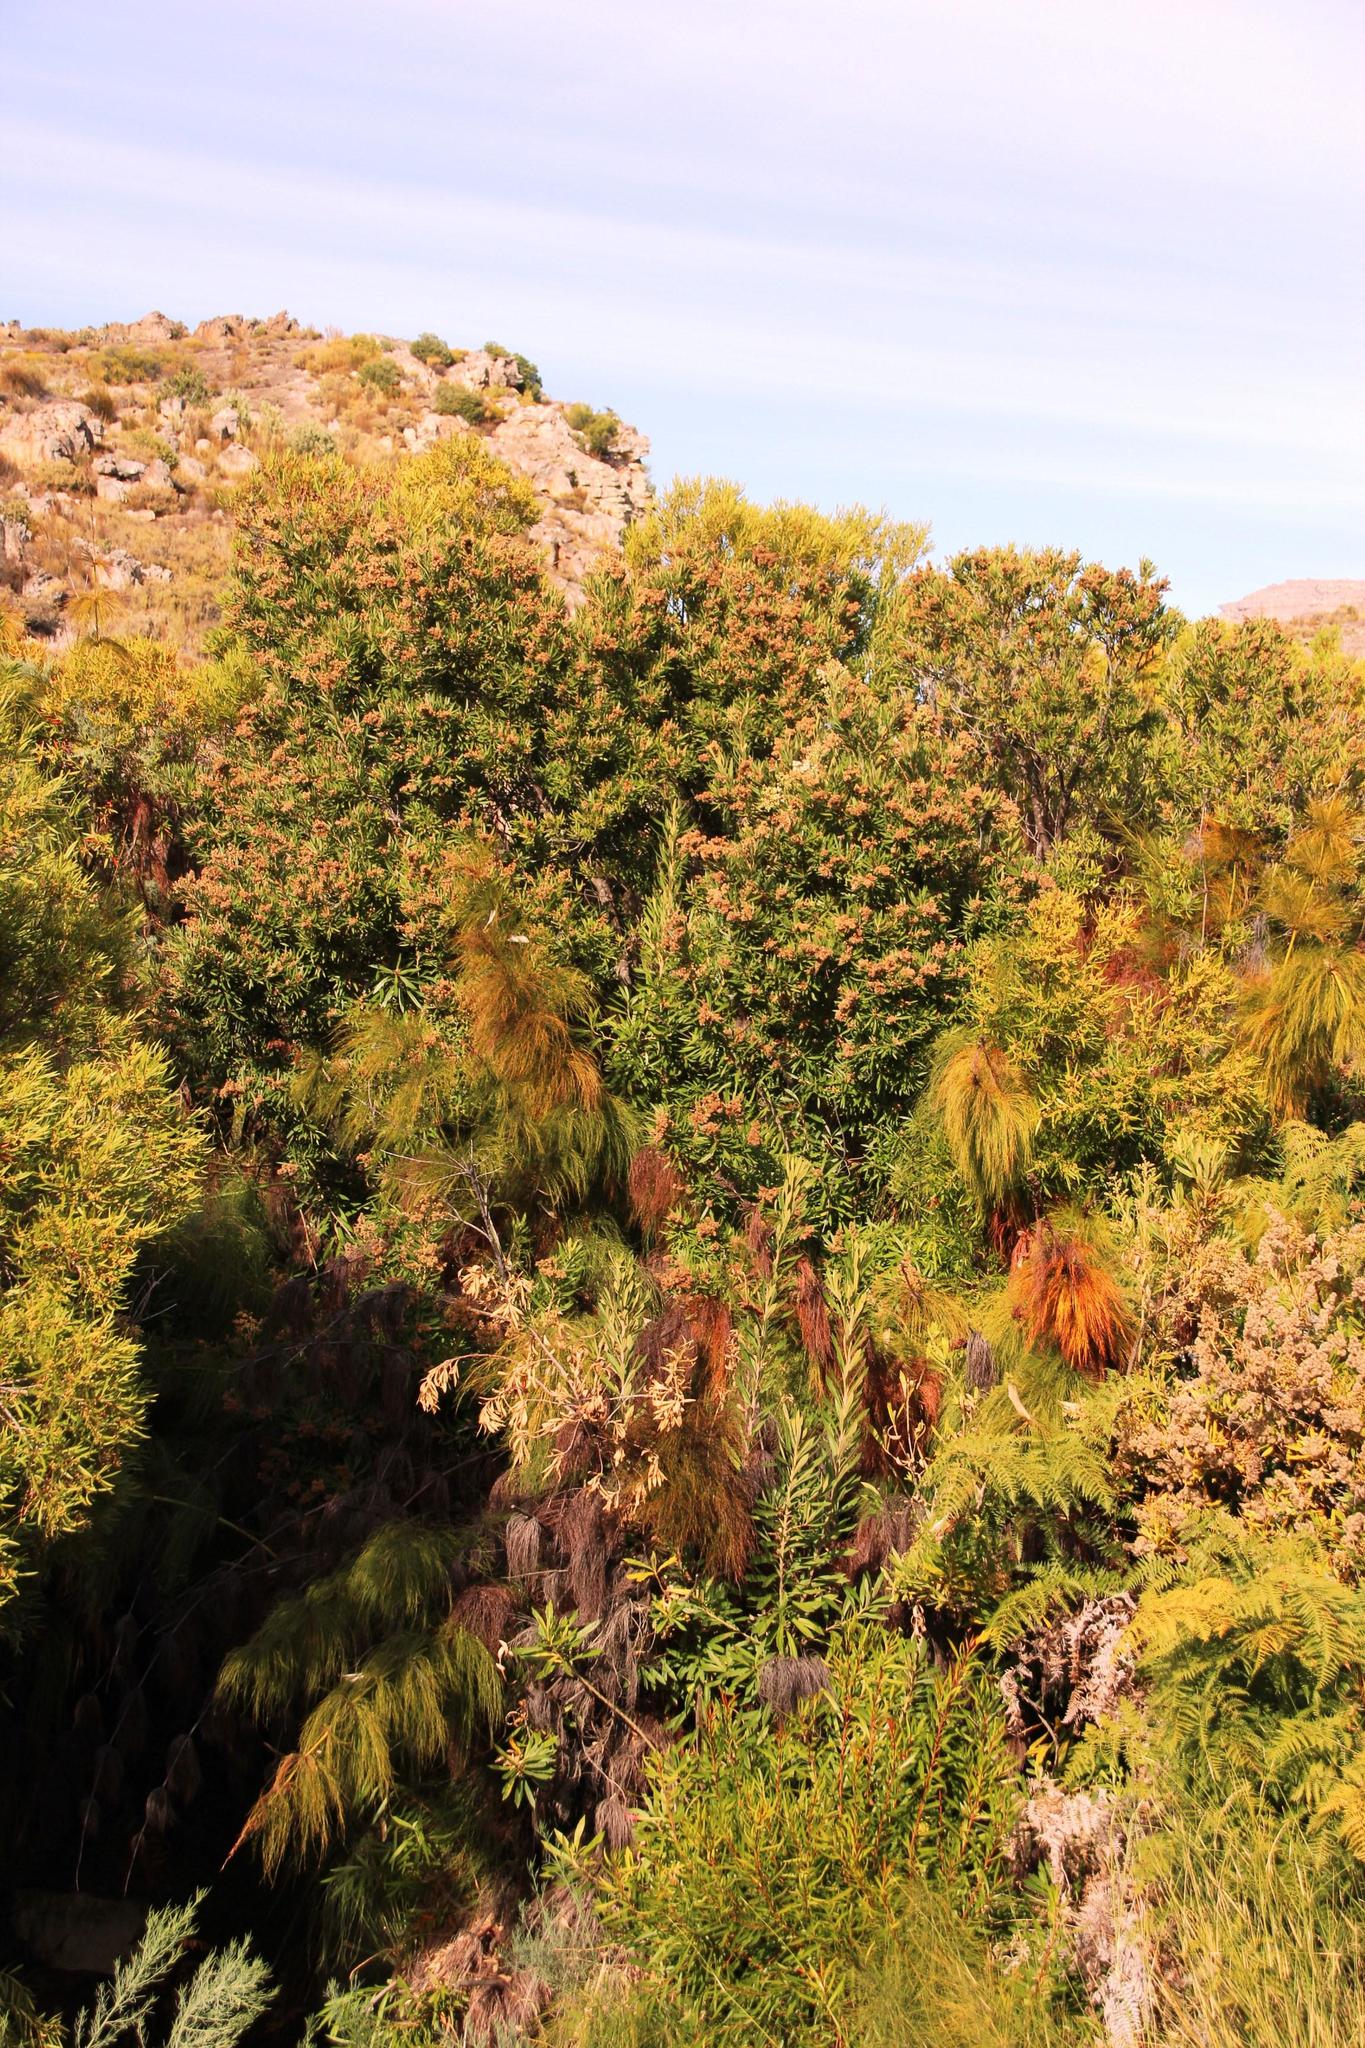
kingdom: Plantae
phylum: Tracheophyta
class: Magnoliopsida
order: Asterales
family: Asteraceae
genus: Brachylaena
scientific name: Brachylaena neriifolia
